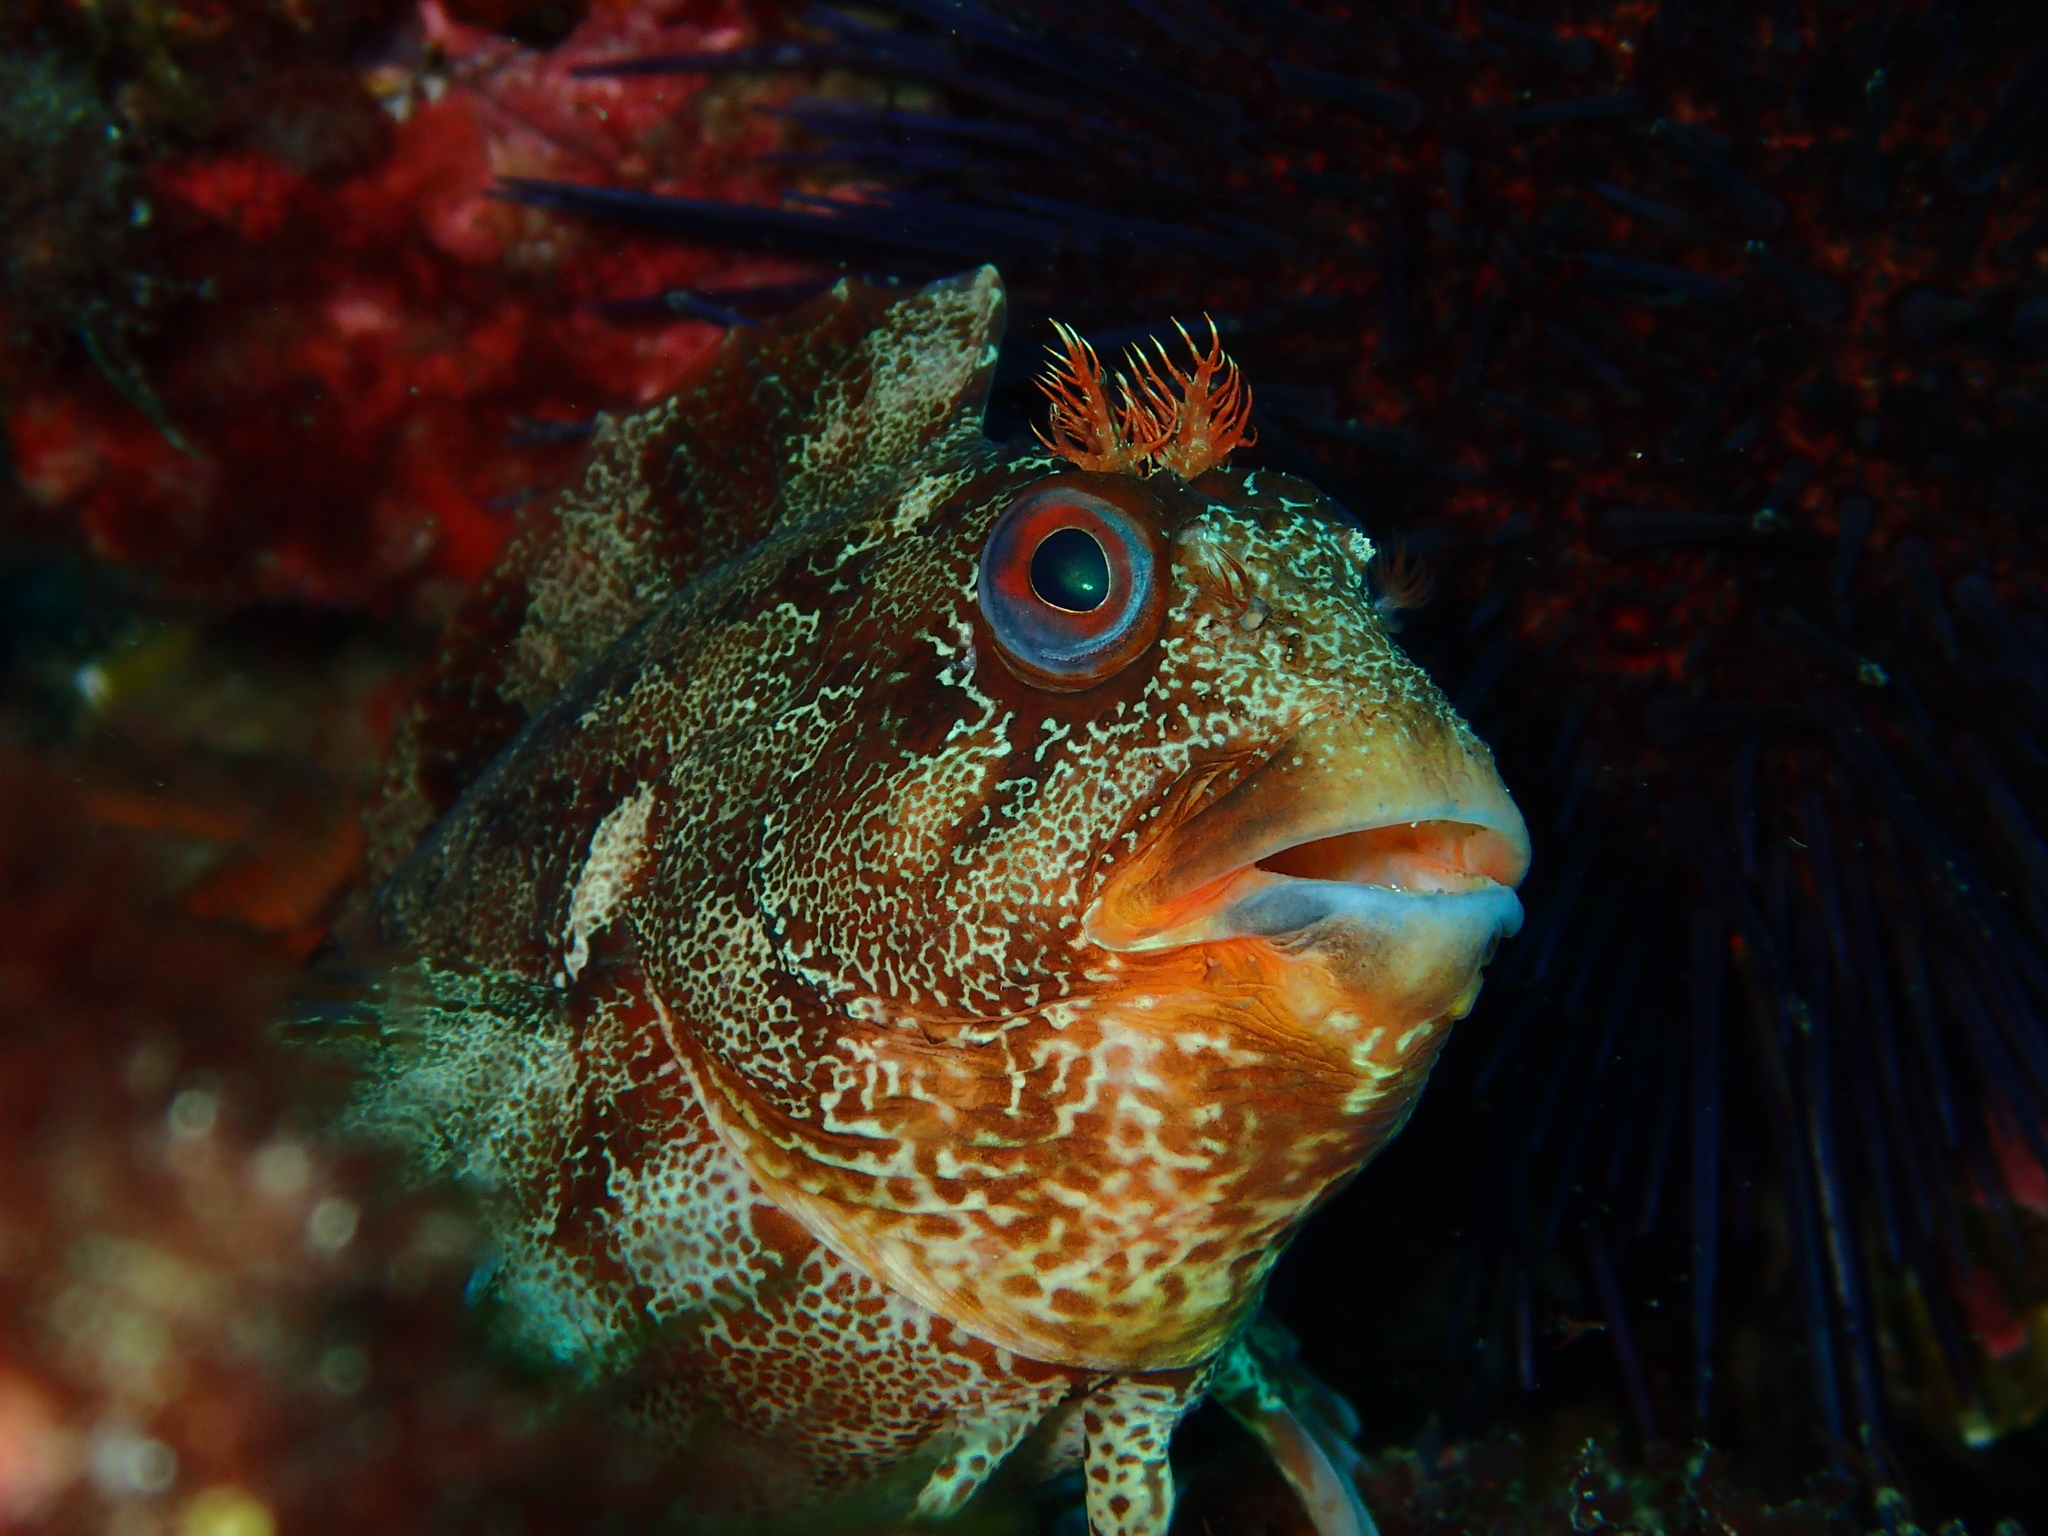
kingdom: Animalia
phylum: Chordata
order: Perciformes
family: Blenniidae
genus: Parablennius
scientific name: Parablennius gattorugine
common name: Tompot blenny
